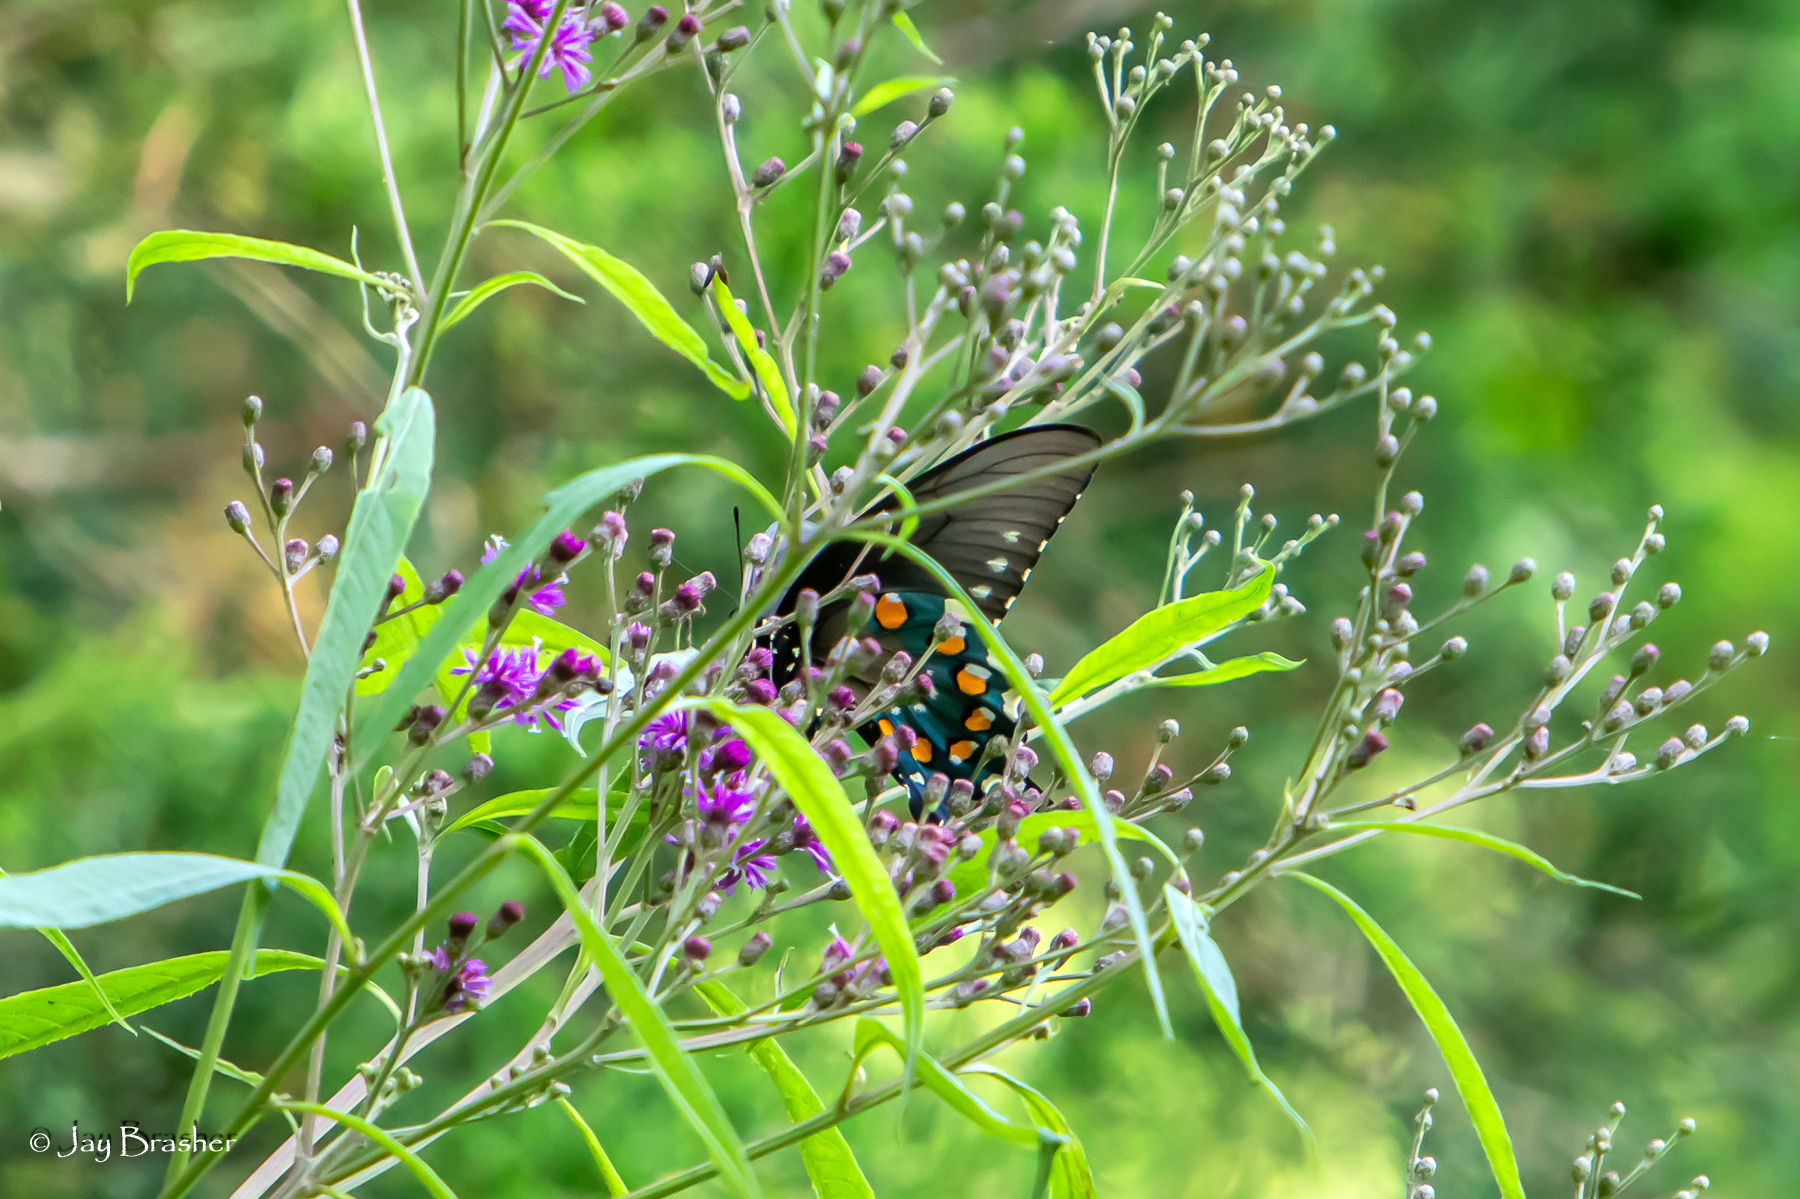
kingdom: Animalia
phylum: Arthropoda
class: Insecta
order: Lepidoptera
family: Papilionidae
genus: Battus
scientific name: Battus philenor
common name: Pipevine swallowtail
